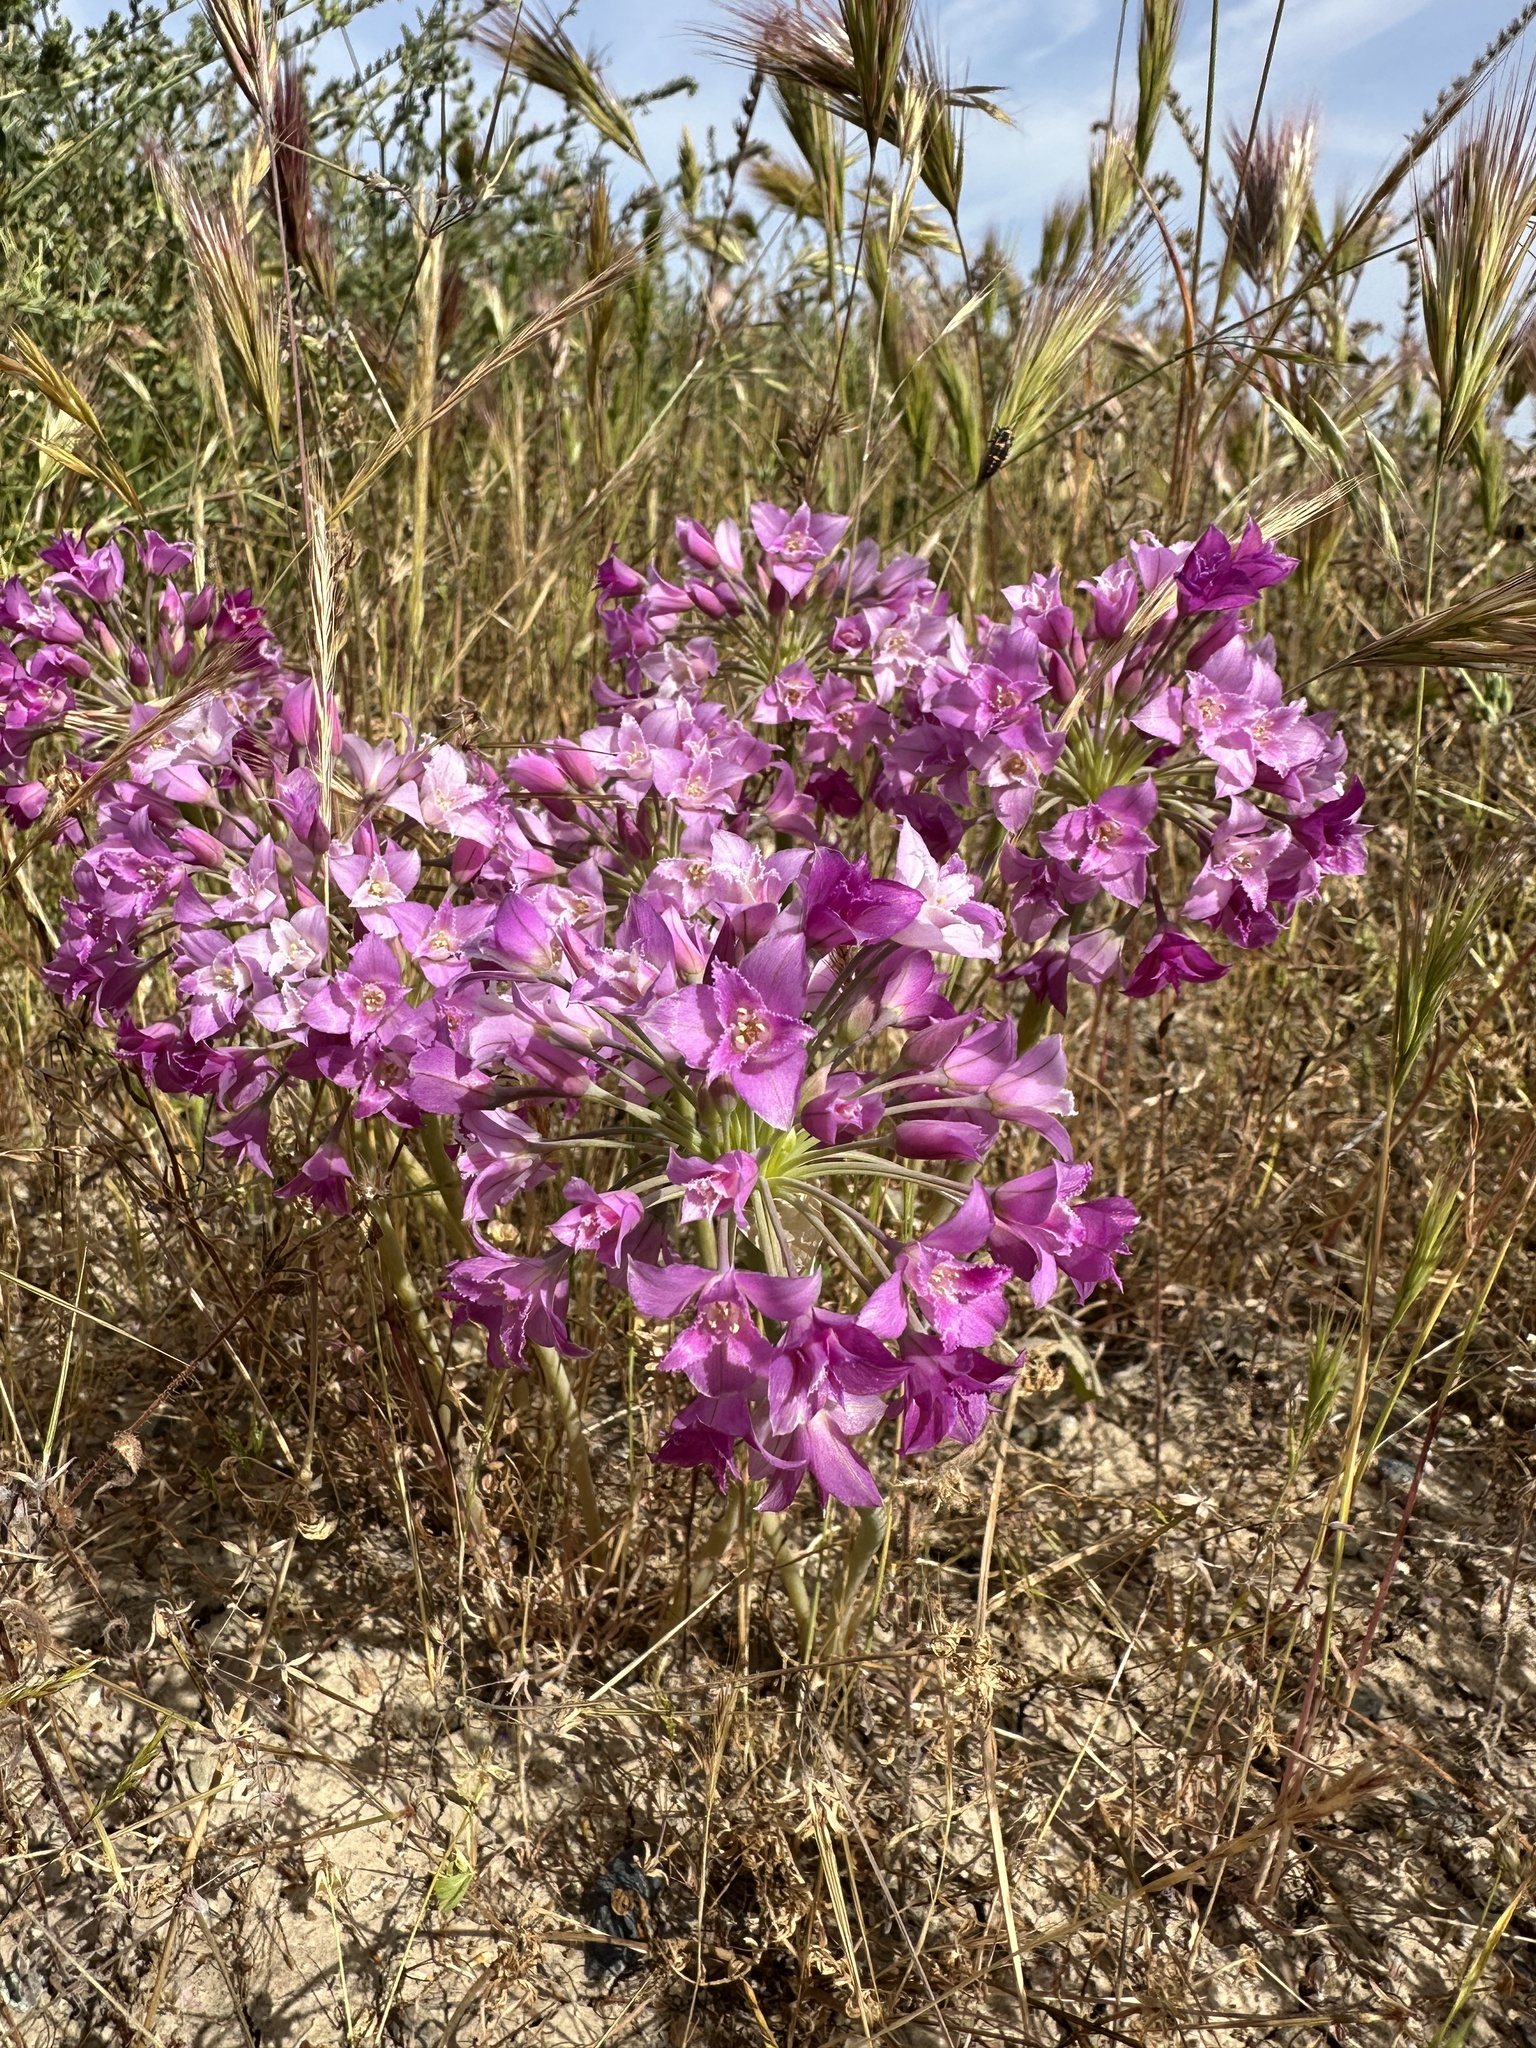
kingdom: Plantae
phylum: Tracheophyta
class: Liliopsida
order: Asparagales
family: Amaryllidaceae
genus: Allium
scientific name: Allium crispum
